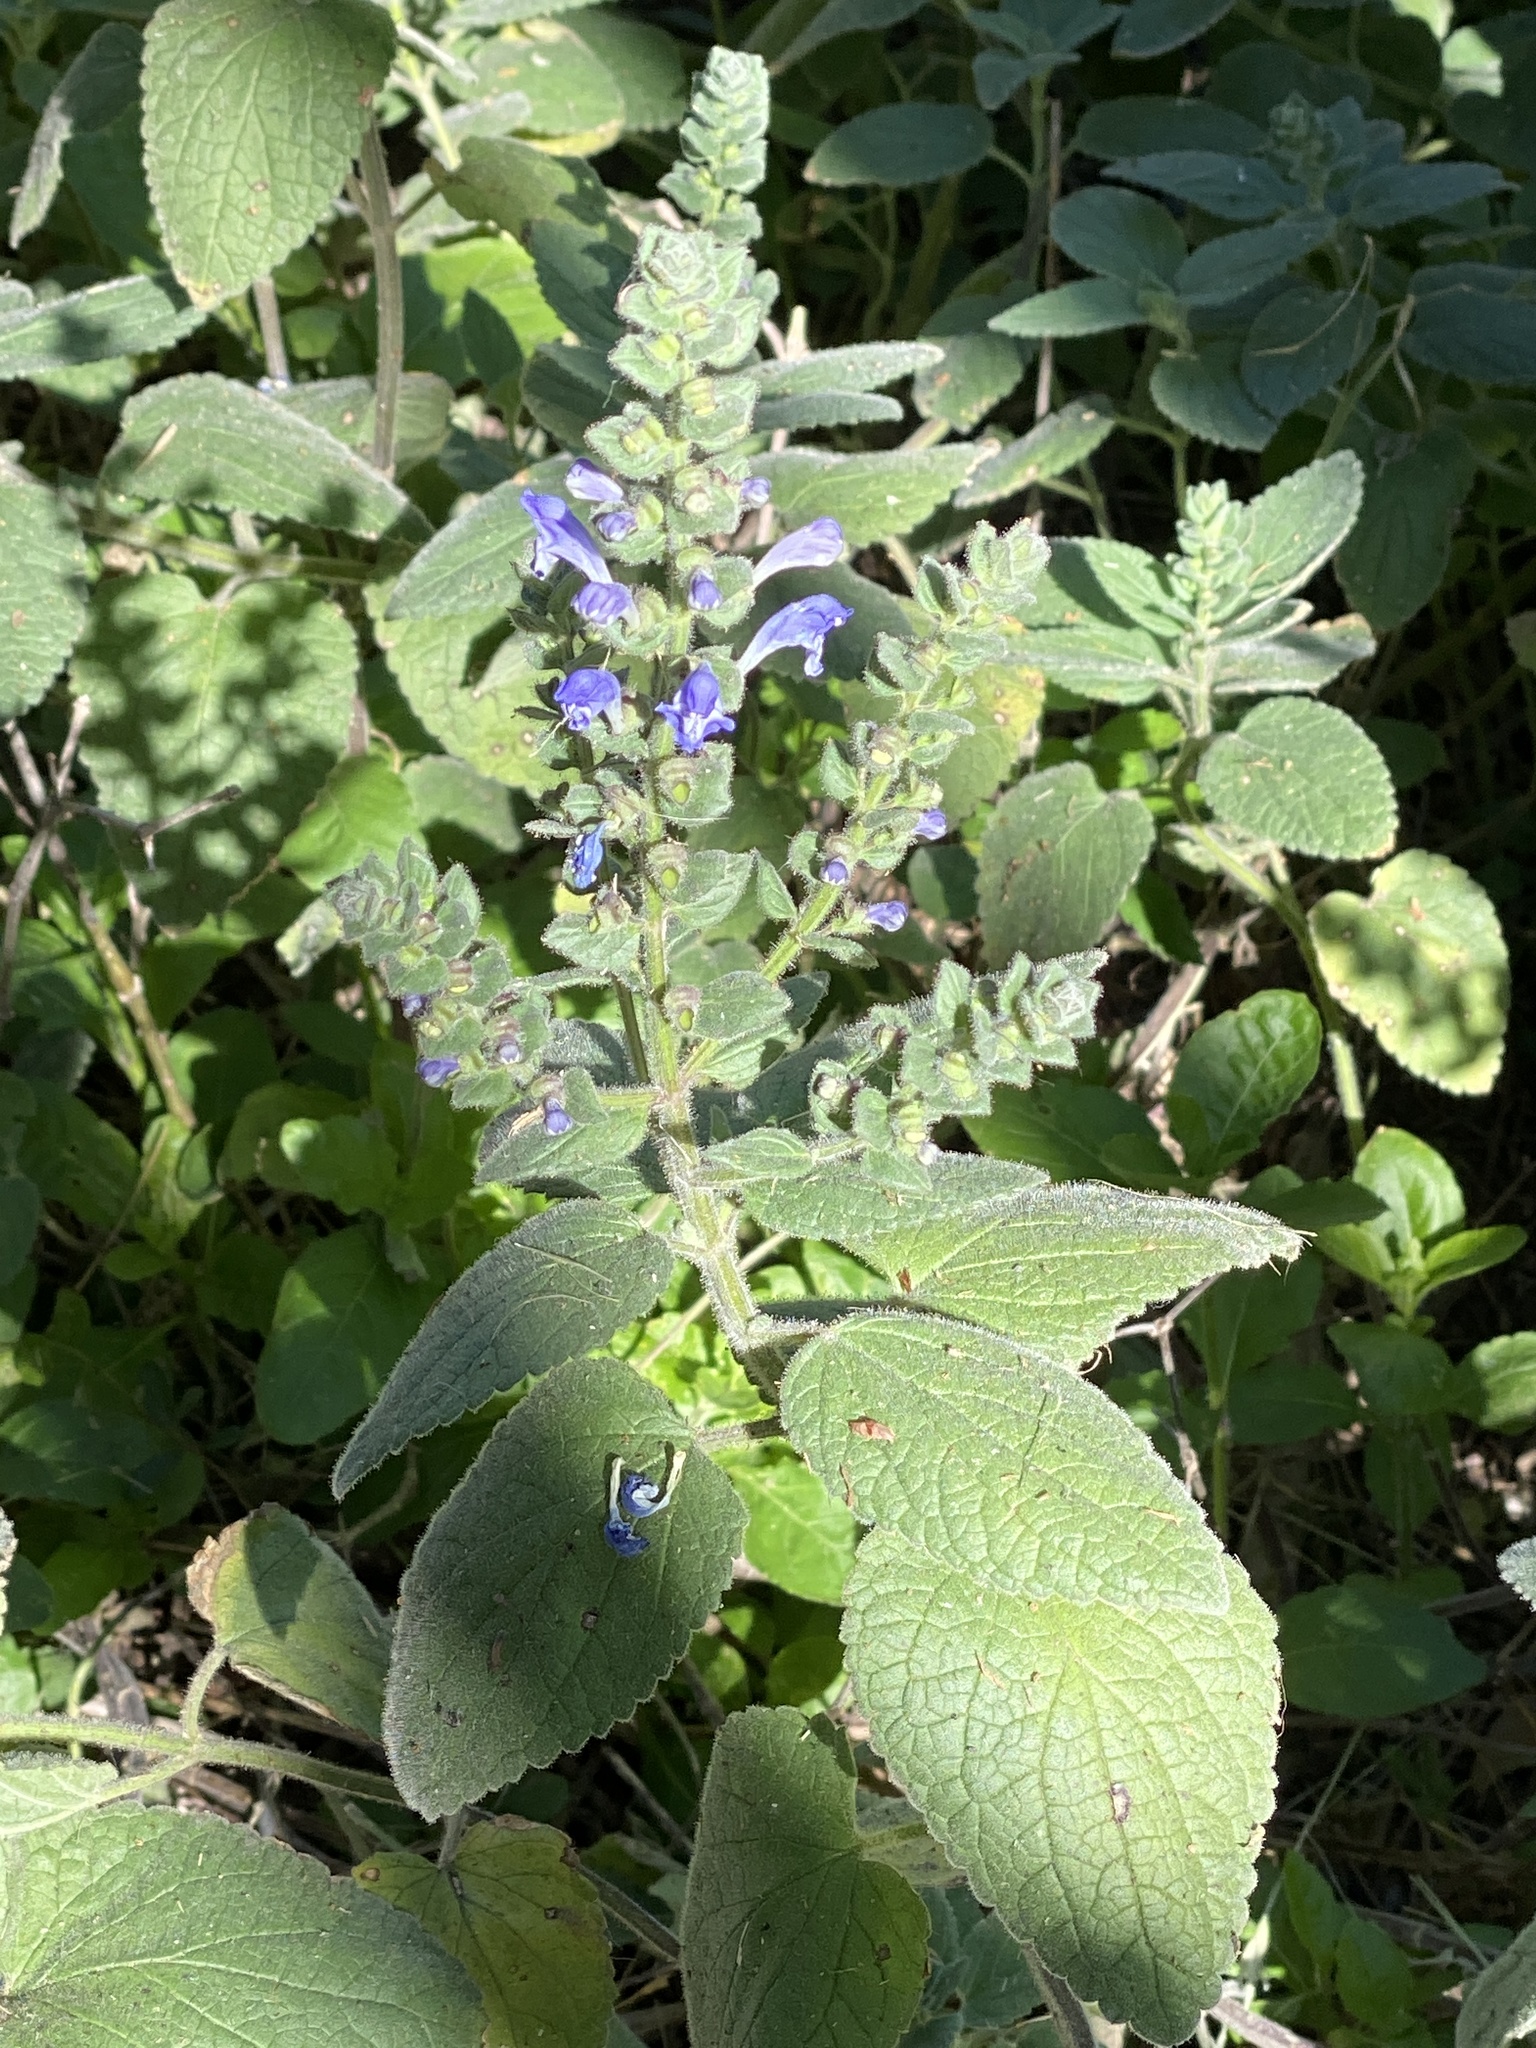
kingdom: Plantae
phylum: Tracheophyta
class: Magnoliopsida
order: Lamiales
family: Lamiaceae
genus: Scutellaria
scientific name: Scutellaria ovata
